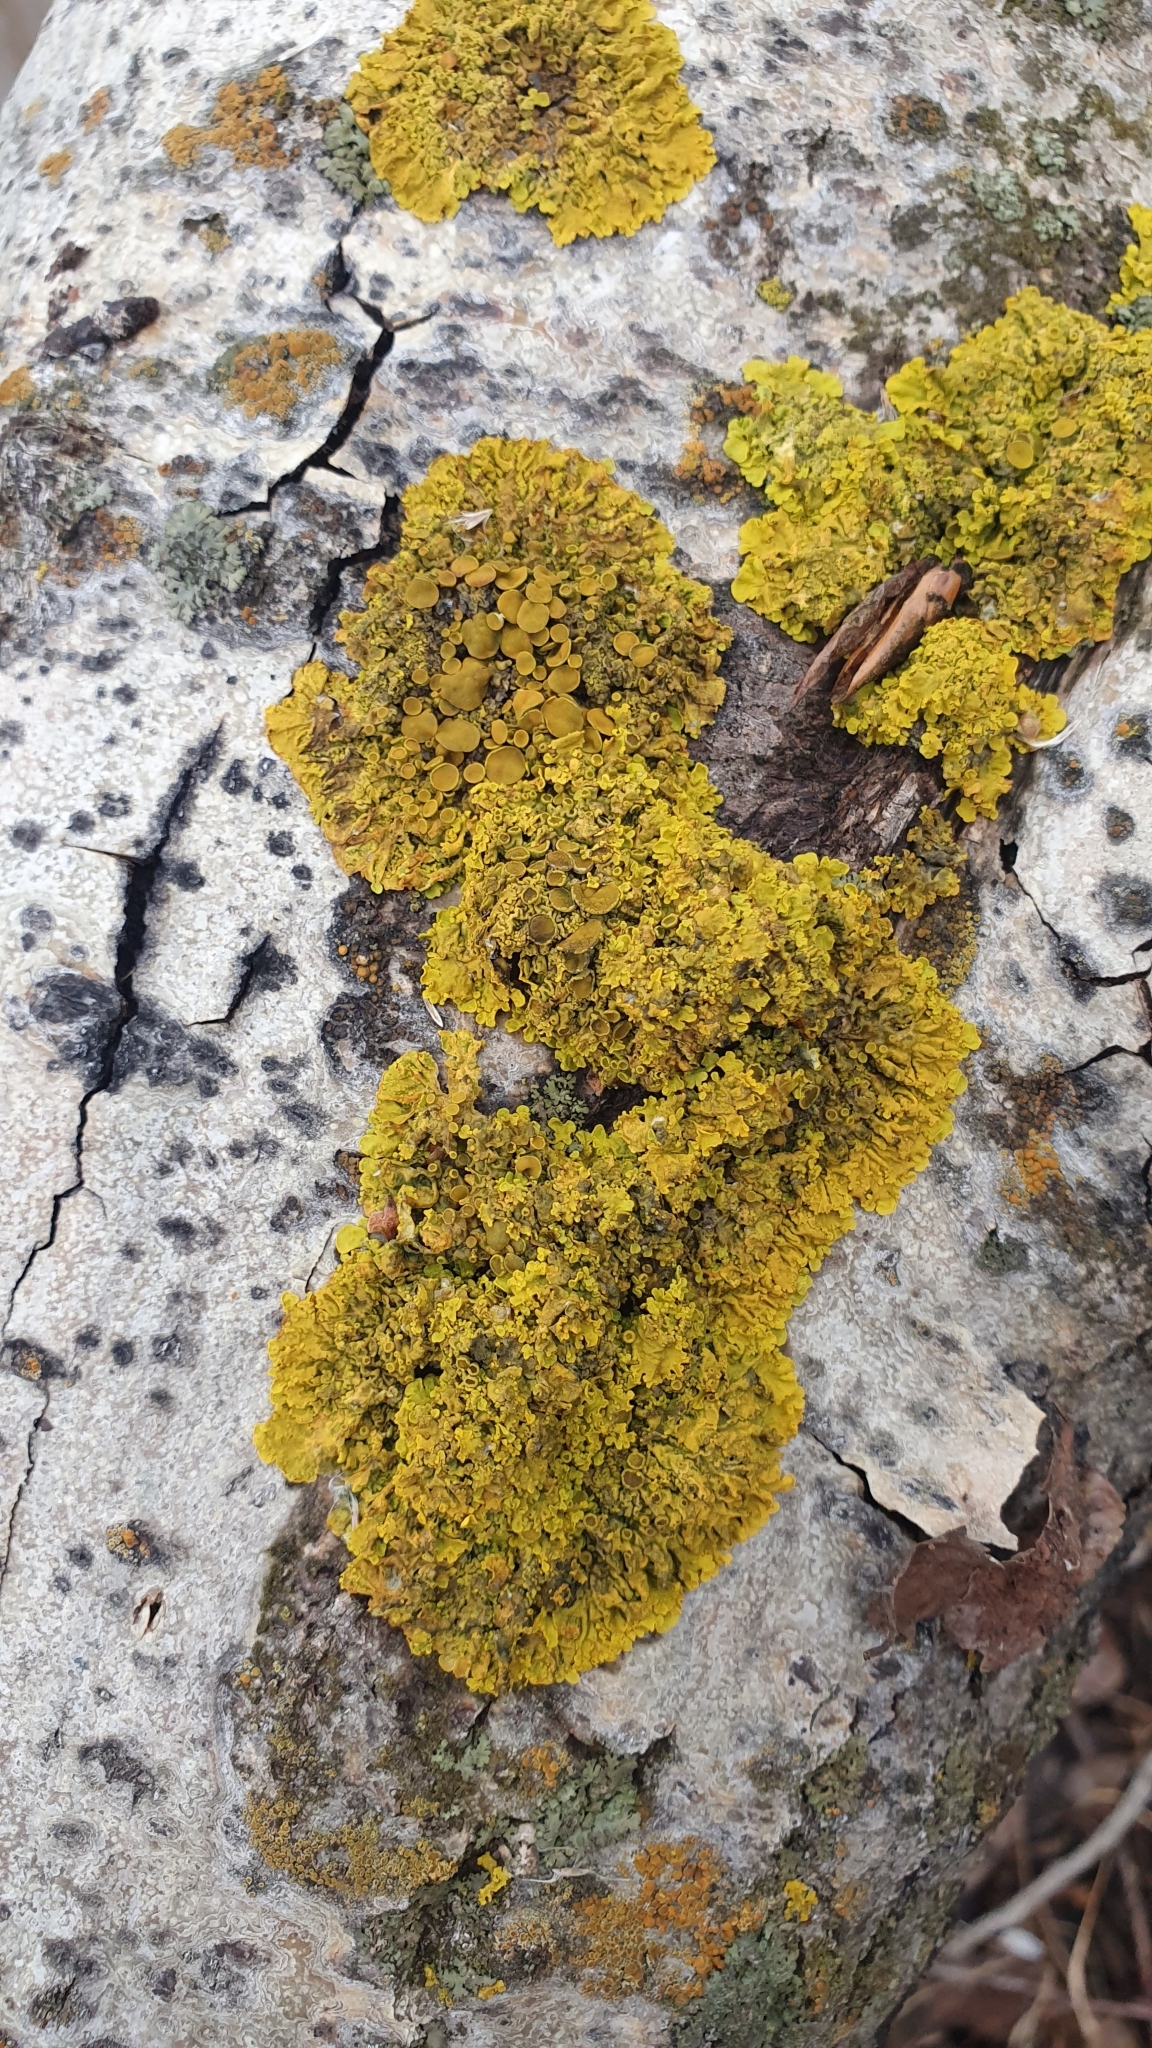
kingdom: Fungi
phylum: Ascomycota
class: Lecanoromycetes
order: Teloschistales
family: Teloschistaceae
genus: Xanthoria
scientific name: Xanthoria parietina
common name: Common orange lichen
